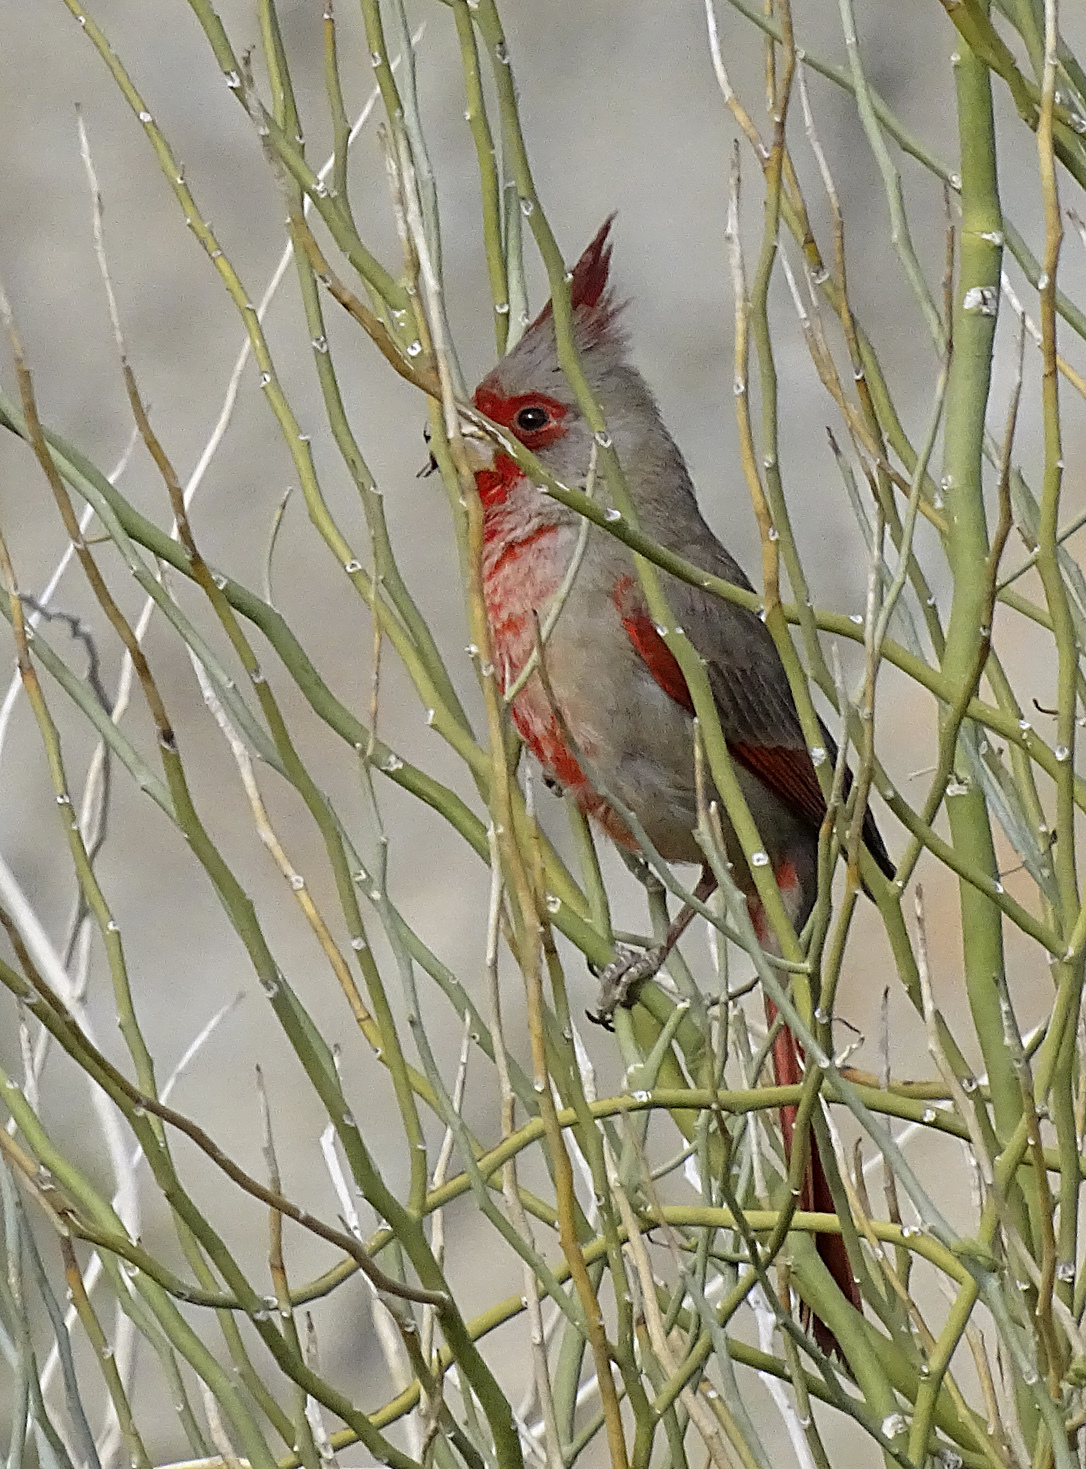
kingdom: Animalia
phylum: Chordata
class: Aves
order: Passeriformes
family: Cardinalidae
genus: Cardinalis
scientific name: Cardinalis sinuatus
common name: Pyrrhuloxia
